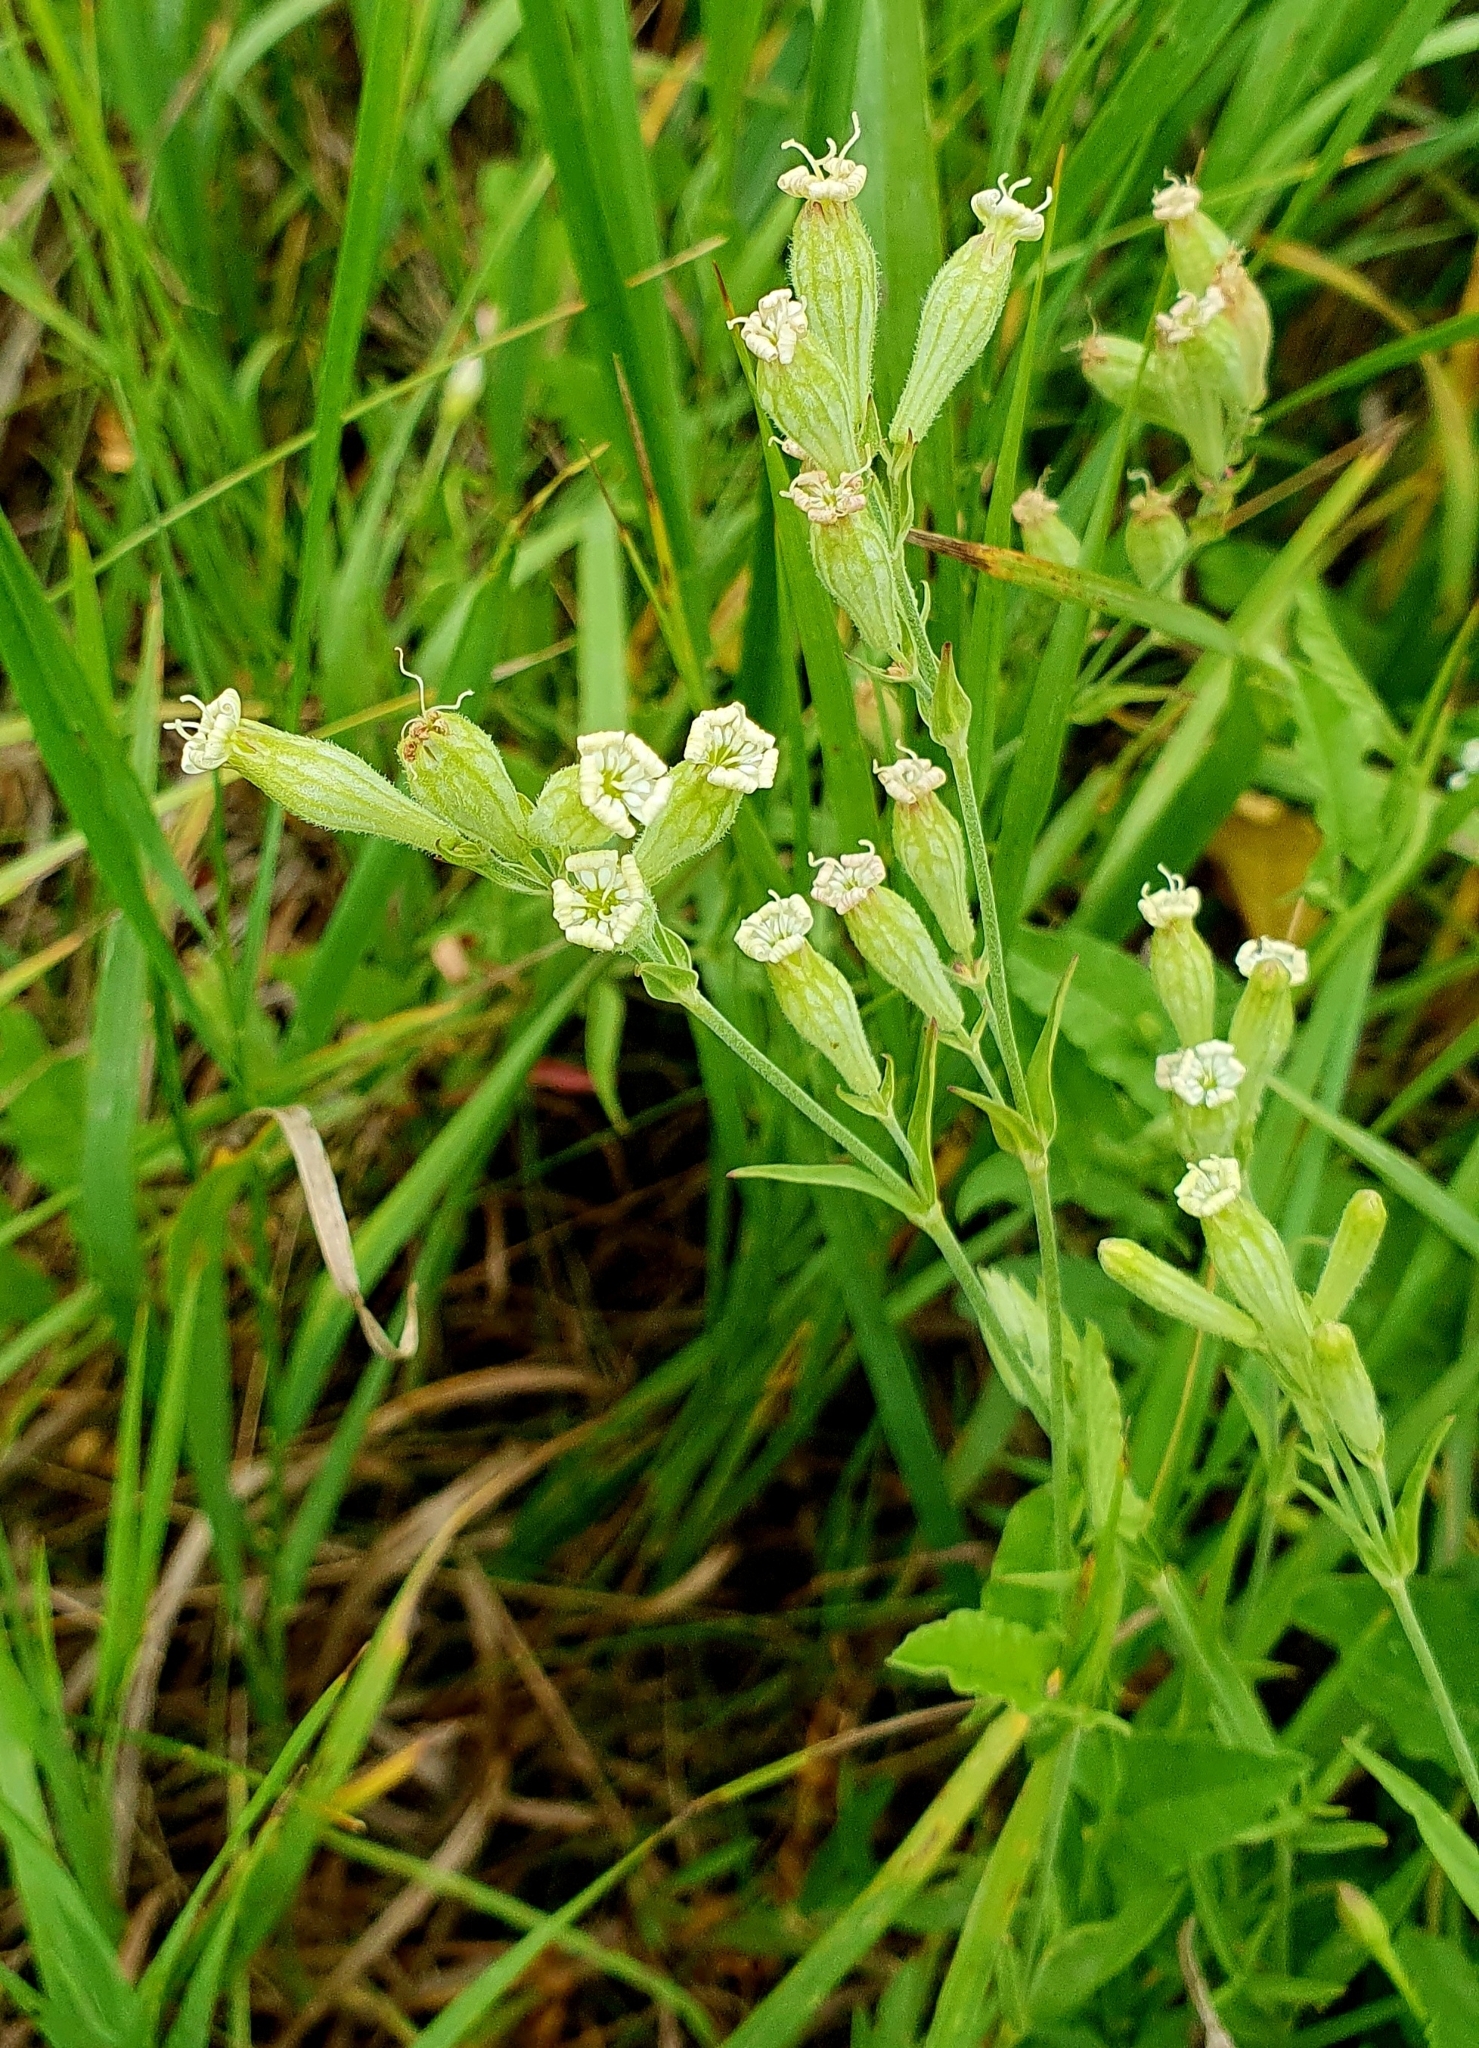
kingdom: Plantae
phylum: Tracheophyta
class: Magnoliopsida
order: Caryophyllales
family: Caryophyllaceae
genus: Silene
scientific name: Silene amoena
